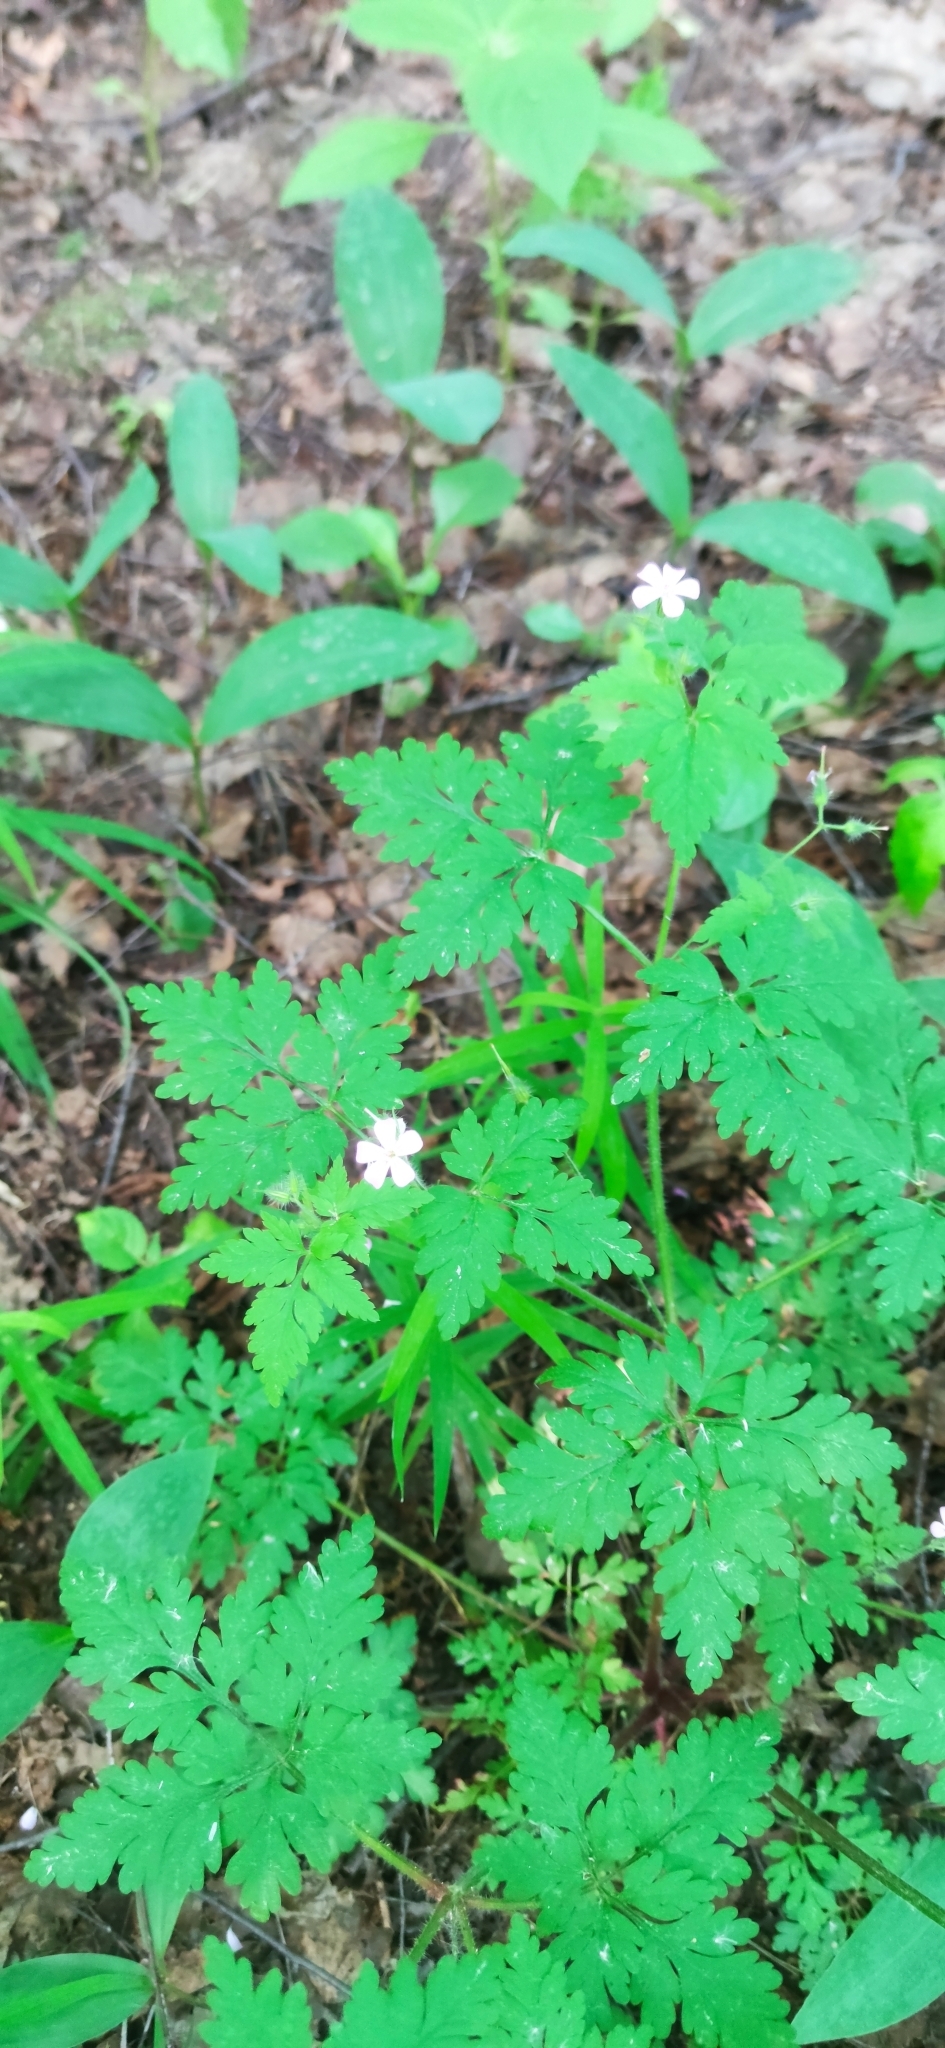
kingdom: Plantae
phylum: Tracheophyta
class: Magnoliopsida
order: Geraniales
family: Geraniaceae
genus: Geranium
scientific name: Geranium robertianum
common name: Herb-robert
